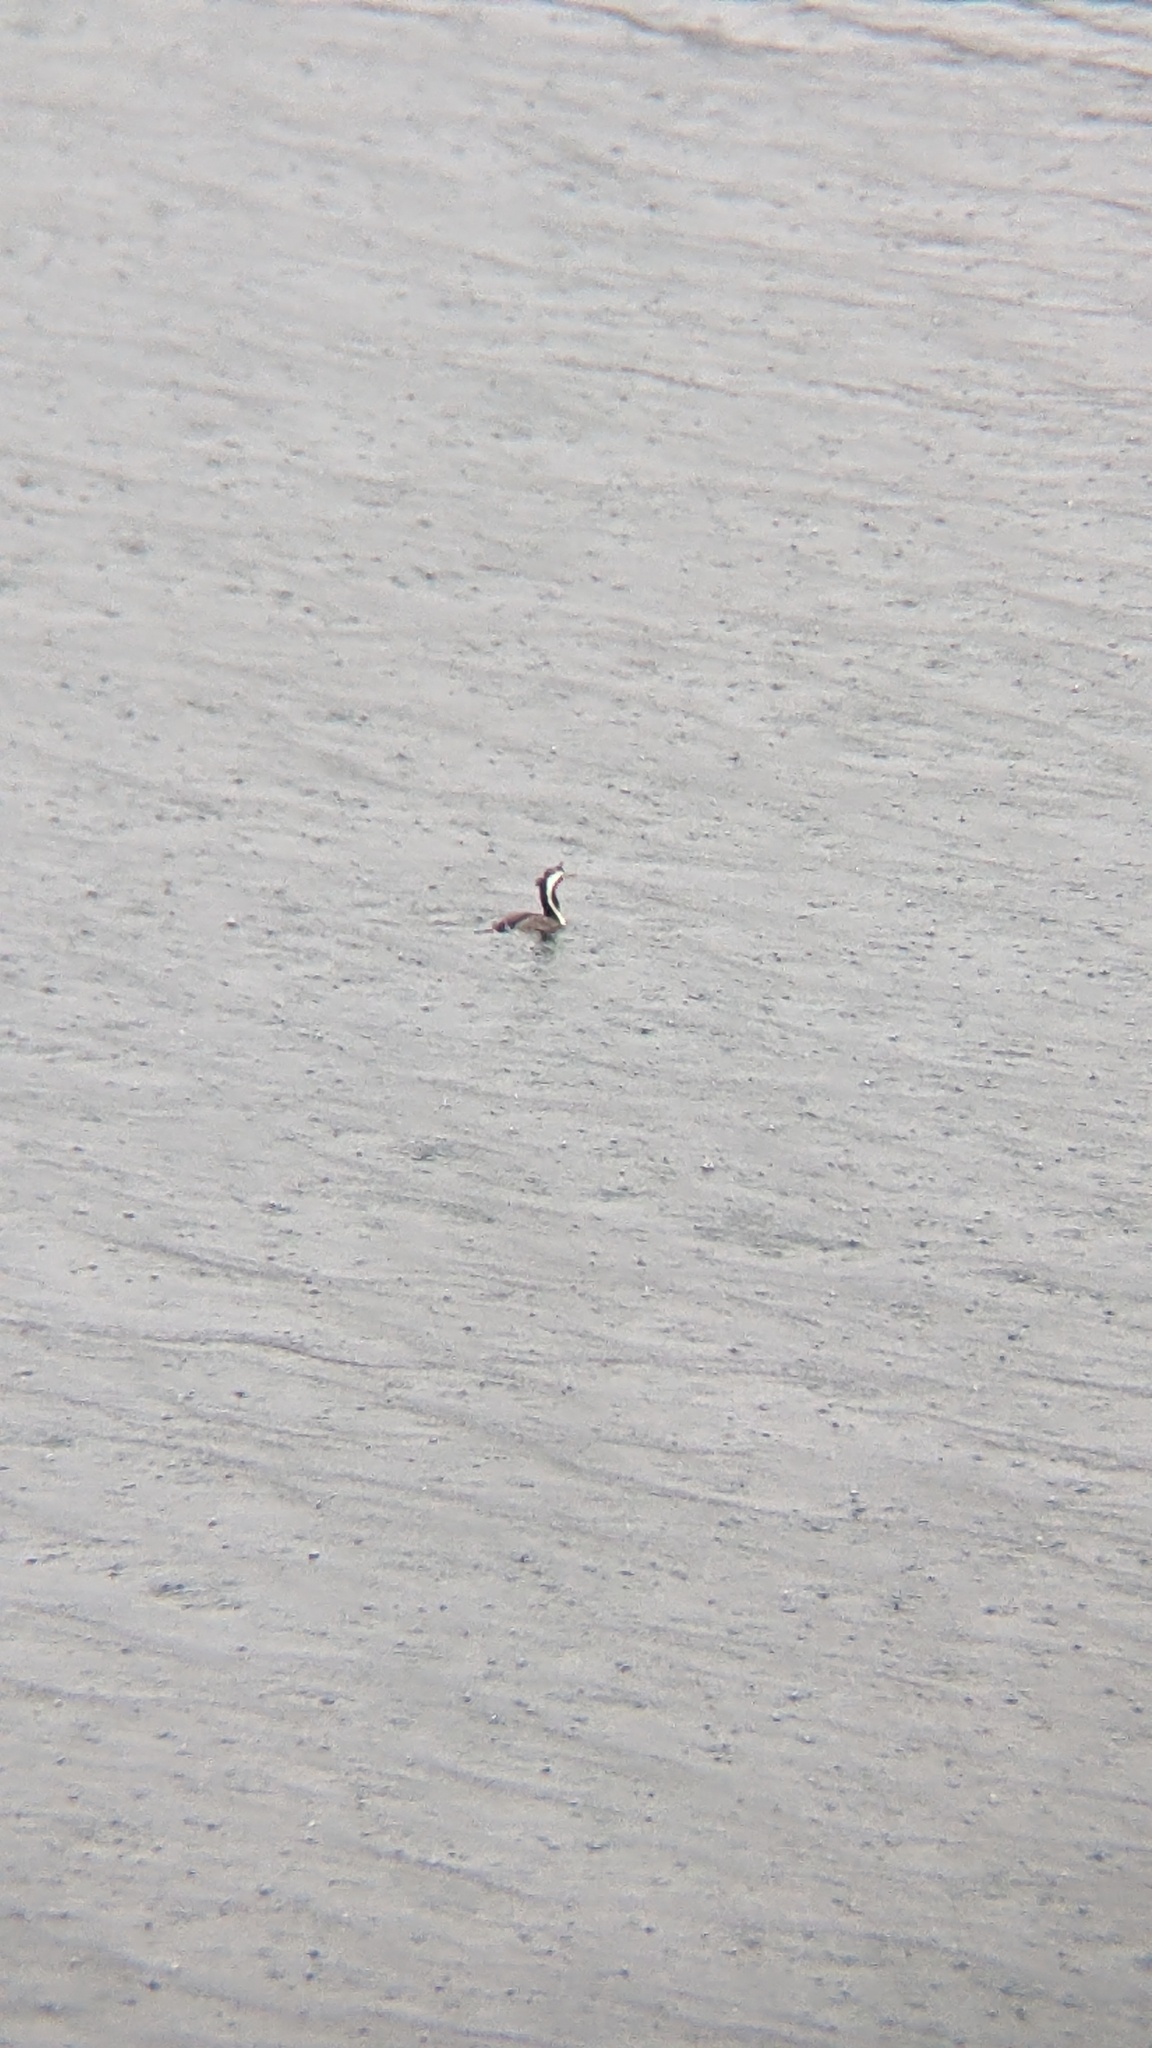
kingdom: Animalia
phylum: Chordata
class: Aves
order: Suliformes
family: Phalacrocoracidae
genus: Phalacrocorax
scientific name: Phalacrocorax punctatus
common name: Spotted shag
